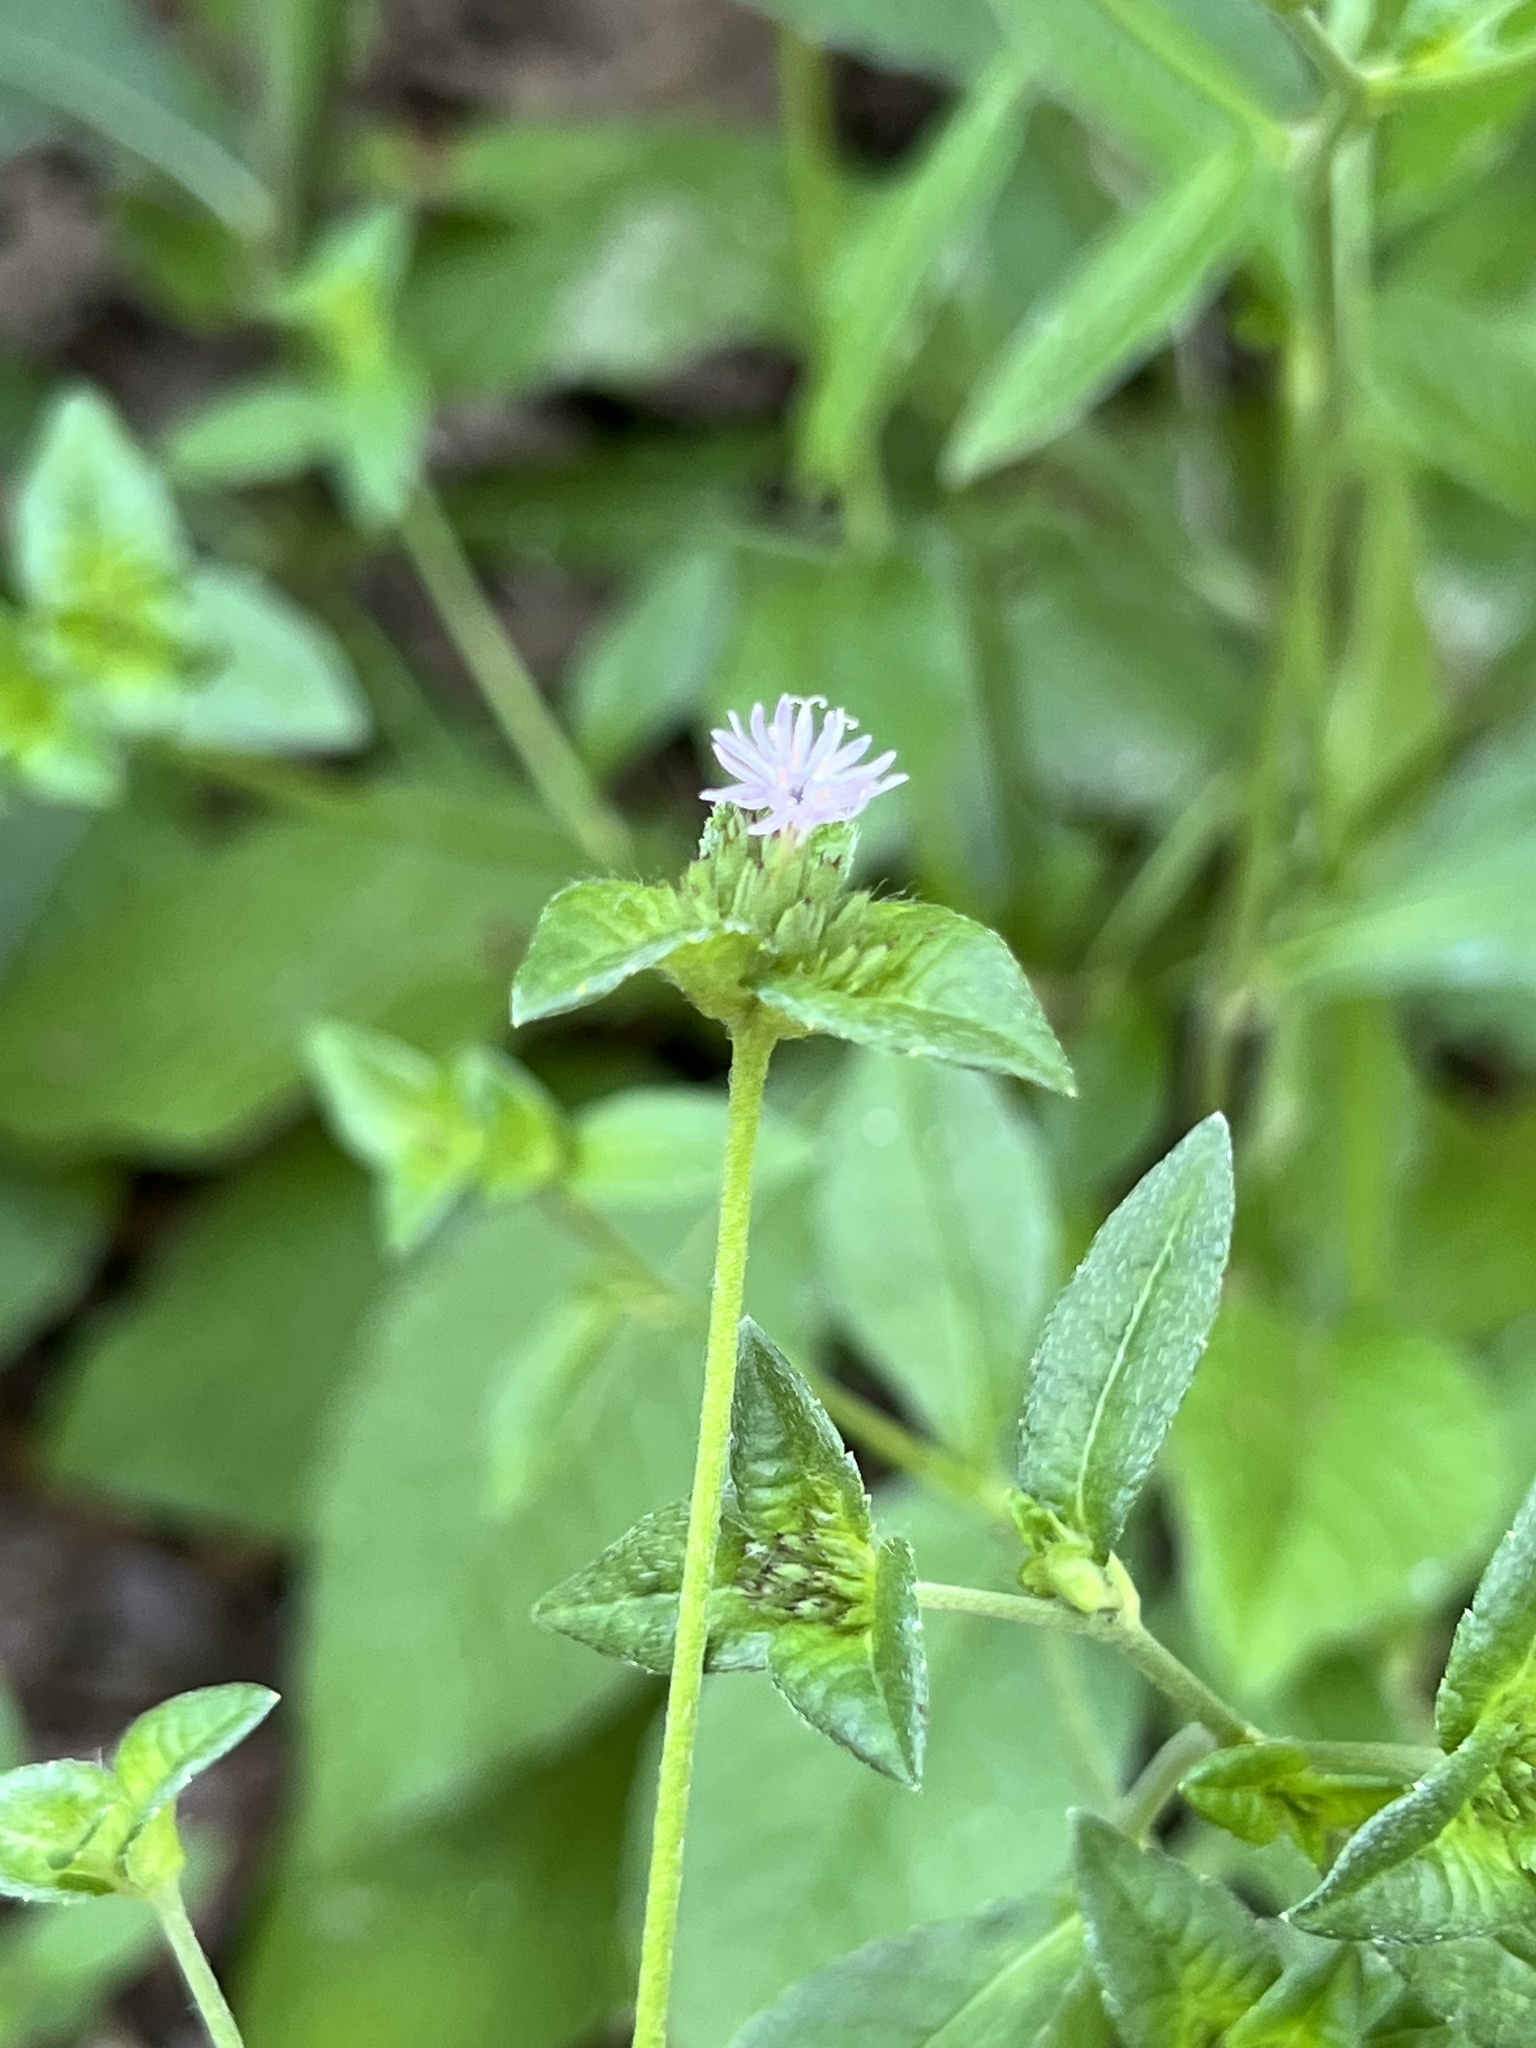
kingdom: Plantae
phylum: Tracheophyta
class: Magnoliopsida
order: Asterales
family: Asteraceae
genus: Elephantopus
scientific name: Elephantopus carolinianus
